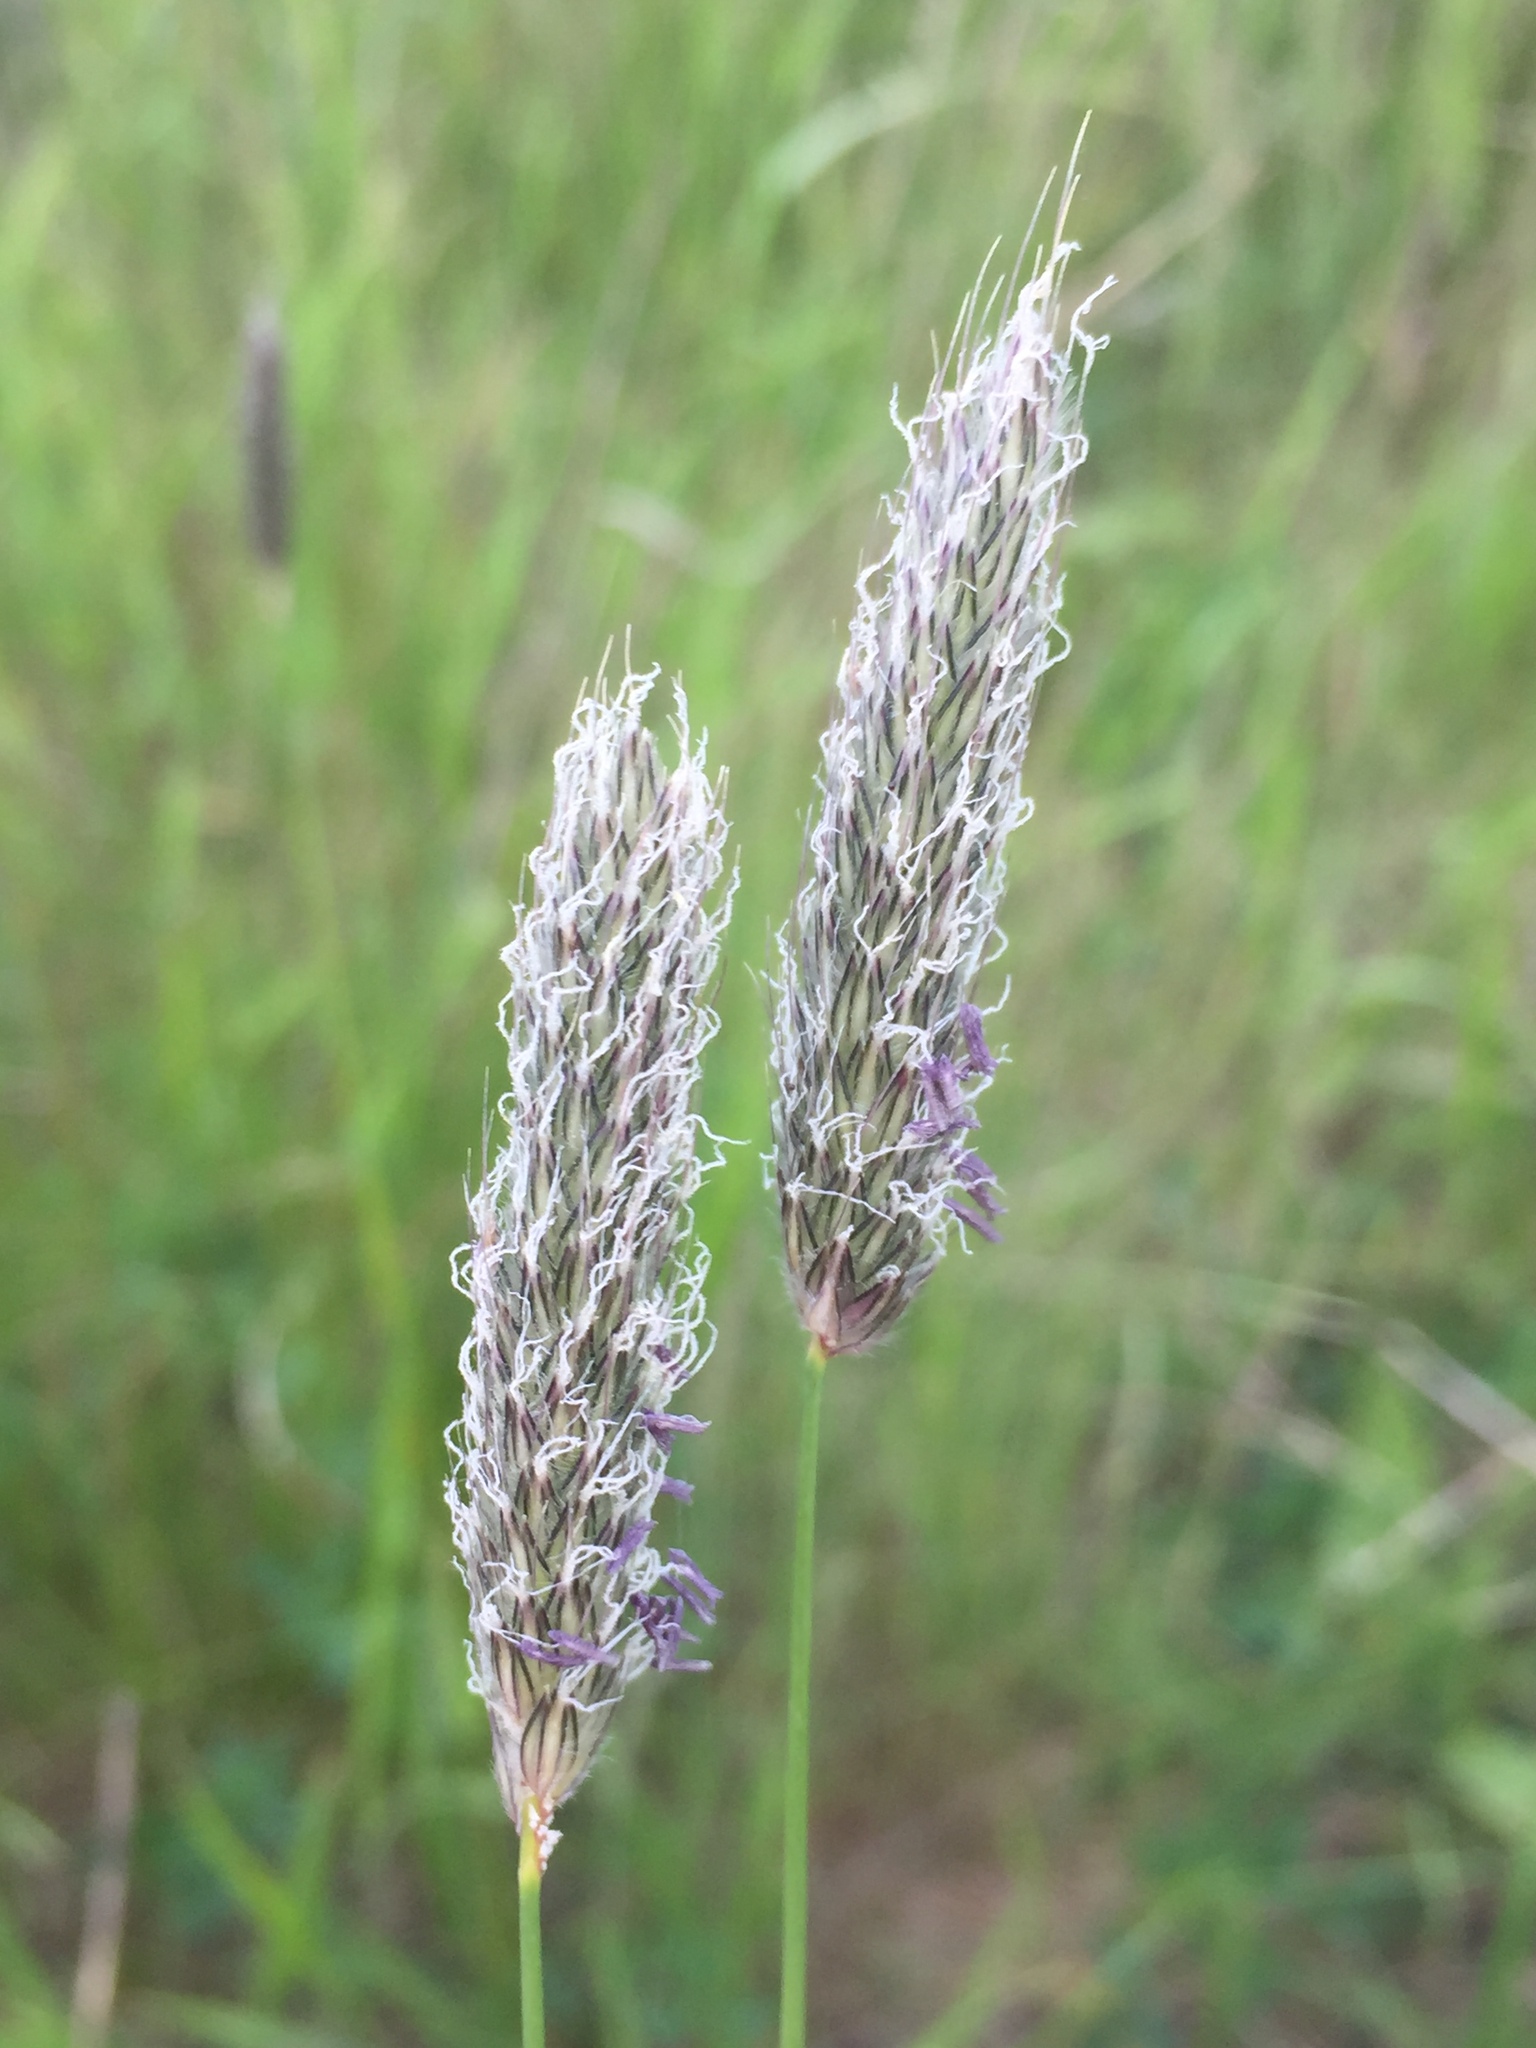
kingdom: Plantae
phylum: Tracheophyta
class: Liliopsida
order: Poales
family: Poaceae
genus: Alopecurus
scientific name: Alopecurus pratensis
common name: Meadow foxtail
